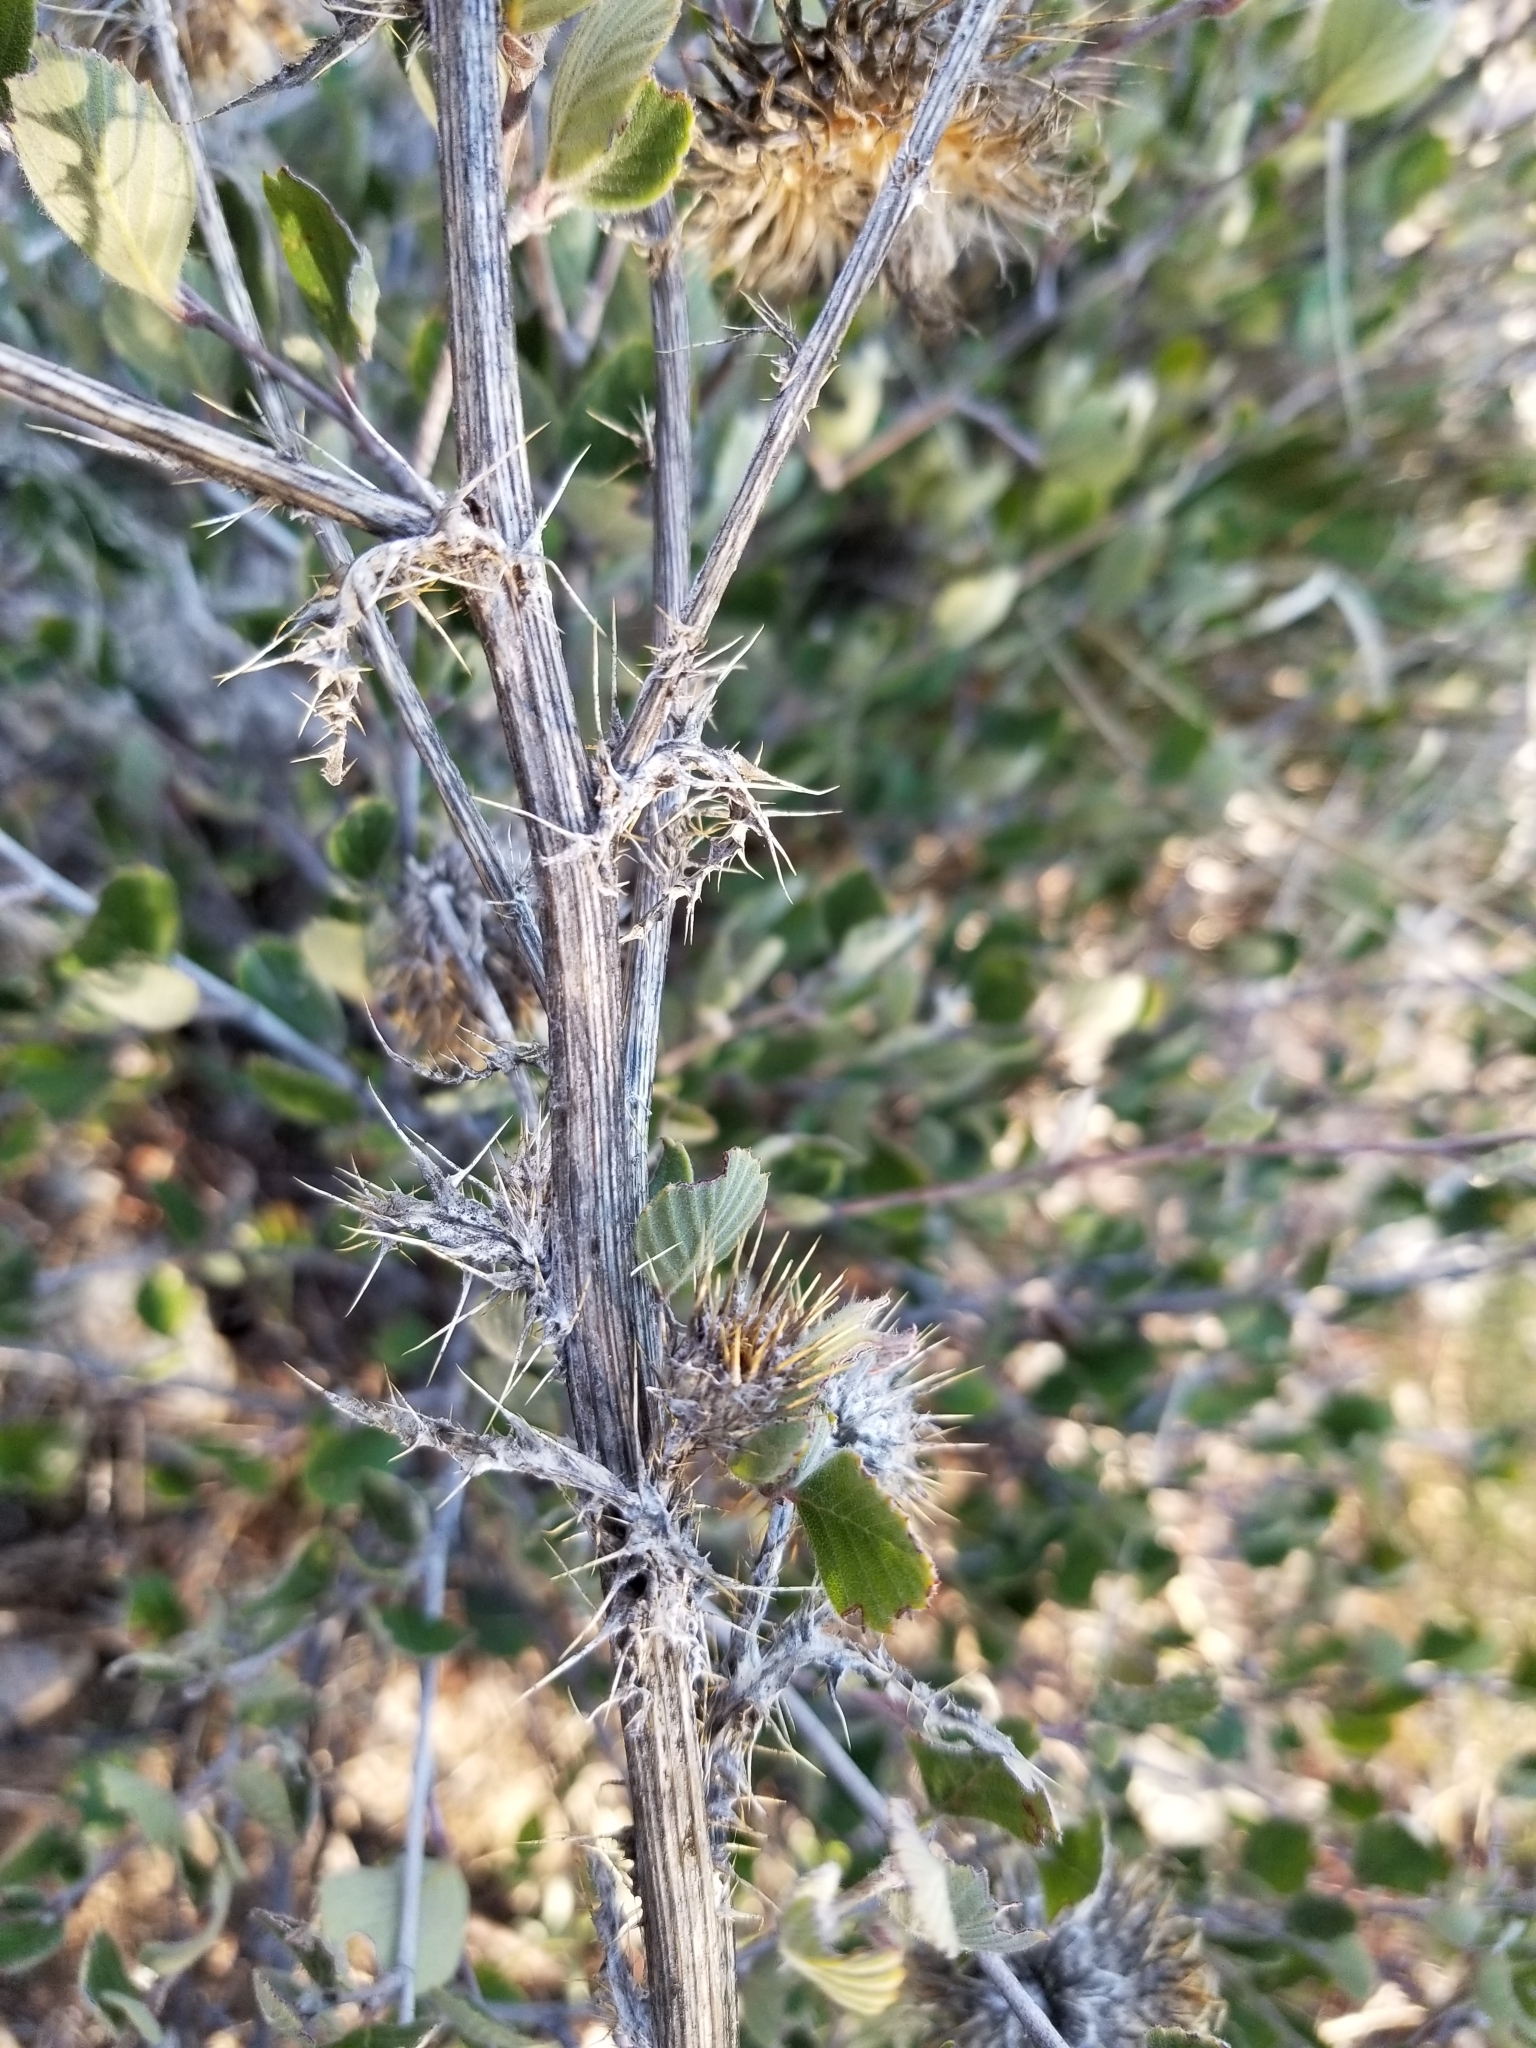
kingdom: Plantae
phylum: Tracheophyta
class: Magnoliopsida
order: Asterales
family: Asteraceae
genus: Cirsium
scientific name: Cirsium occidentale
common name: Western thistle
